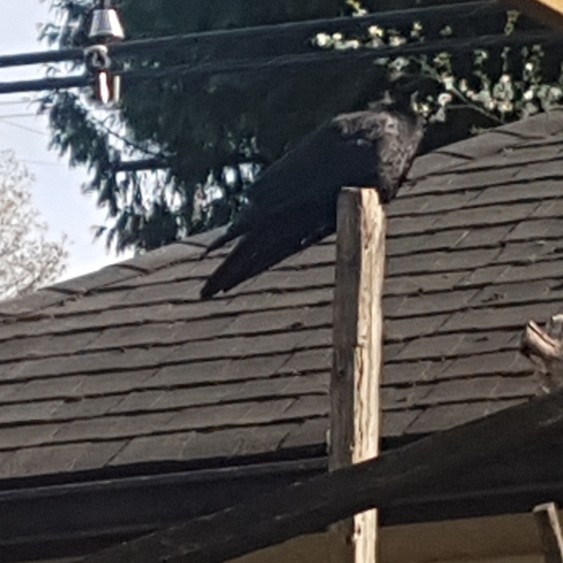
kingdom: Animalia
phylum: Chordata
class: Aves
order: Passeriformes
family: Corvidae
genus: Corvus
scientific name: Corvus brachyrhynchos
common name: American crow
